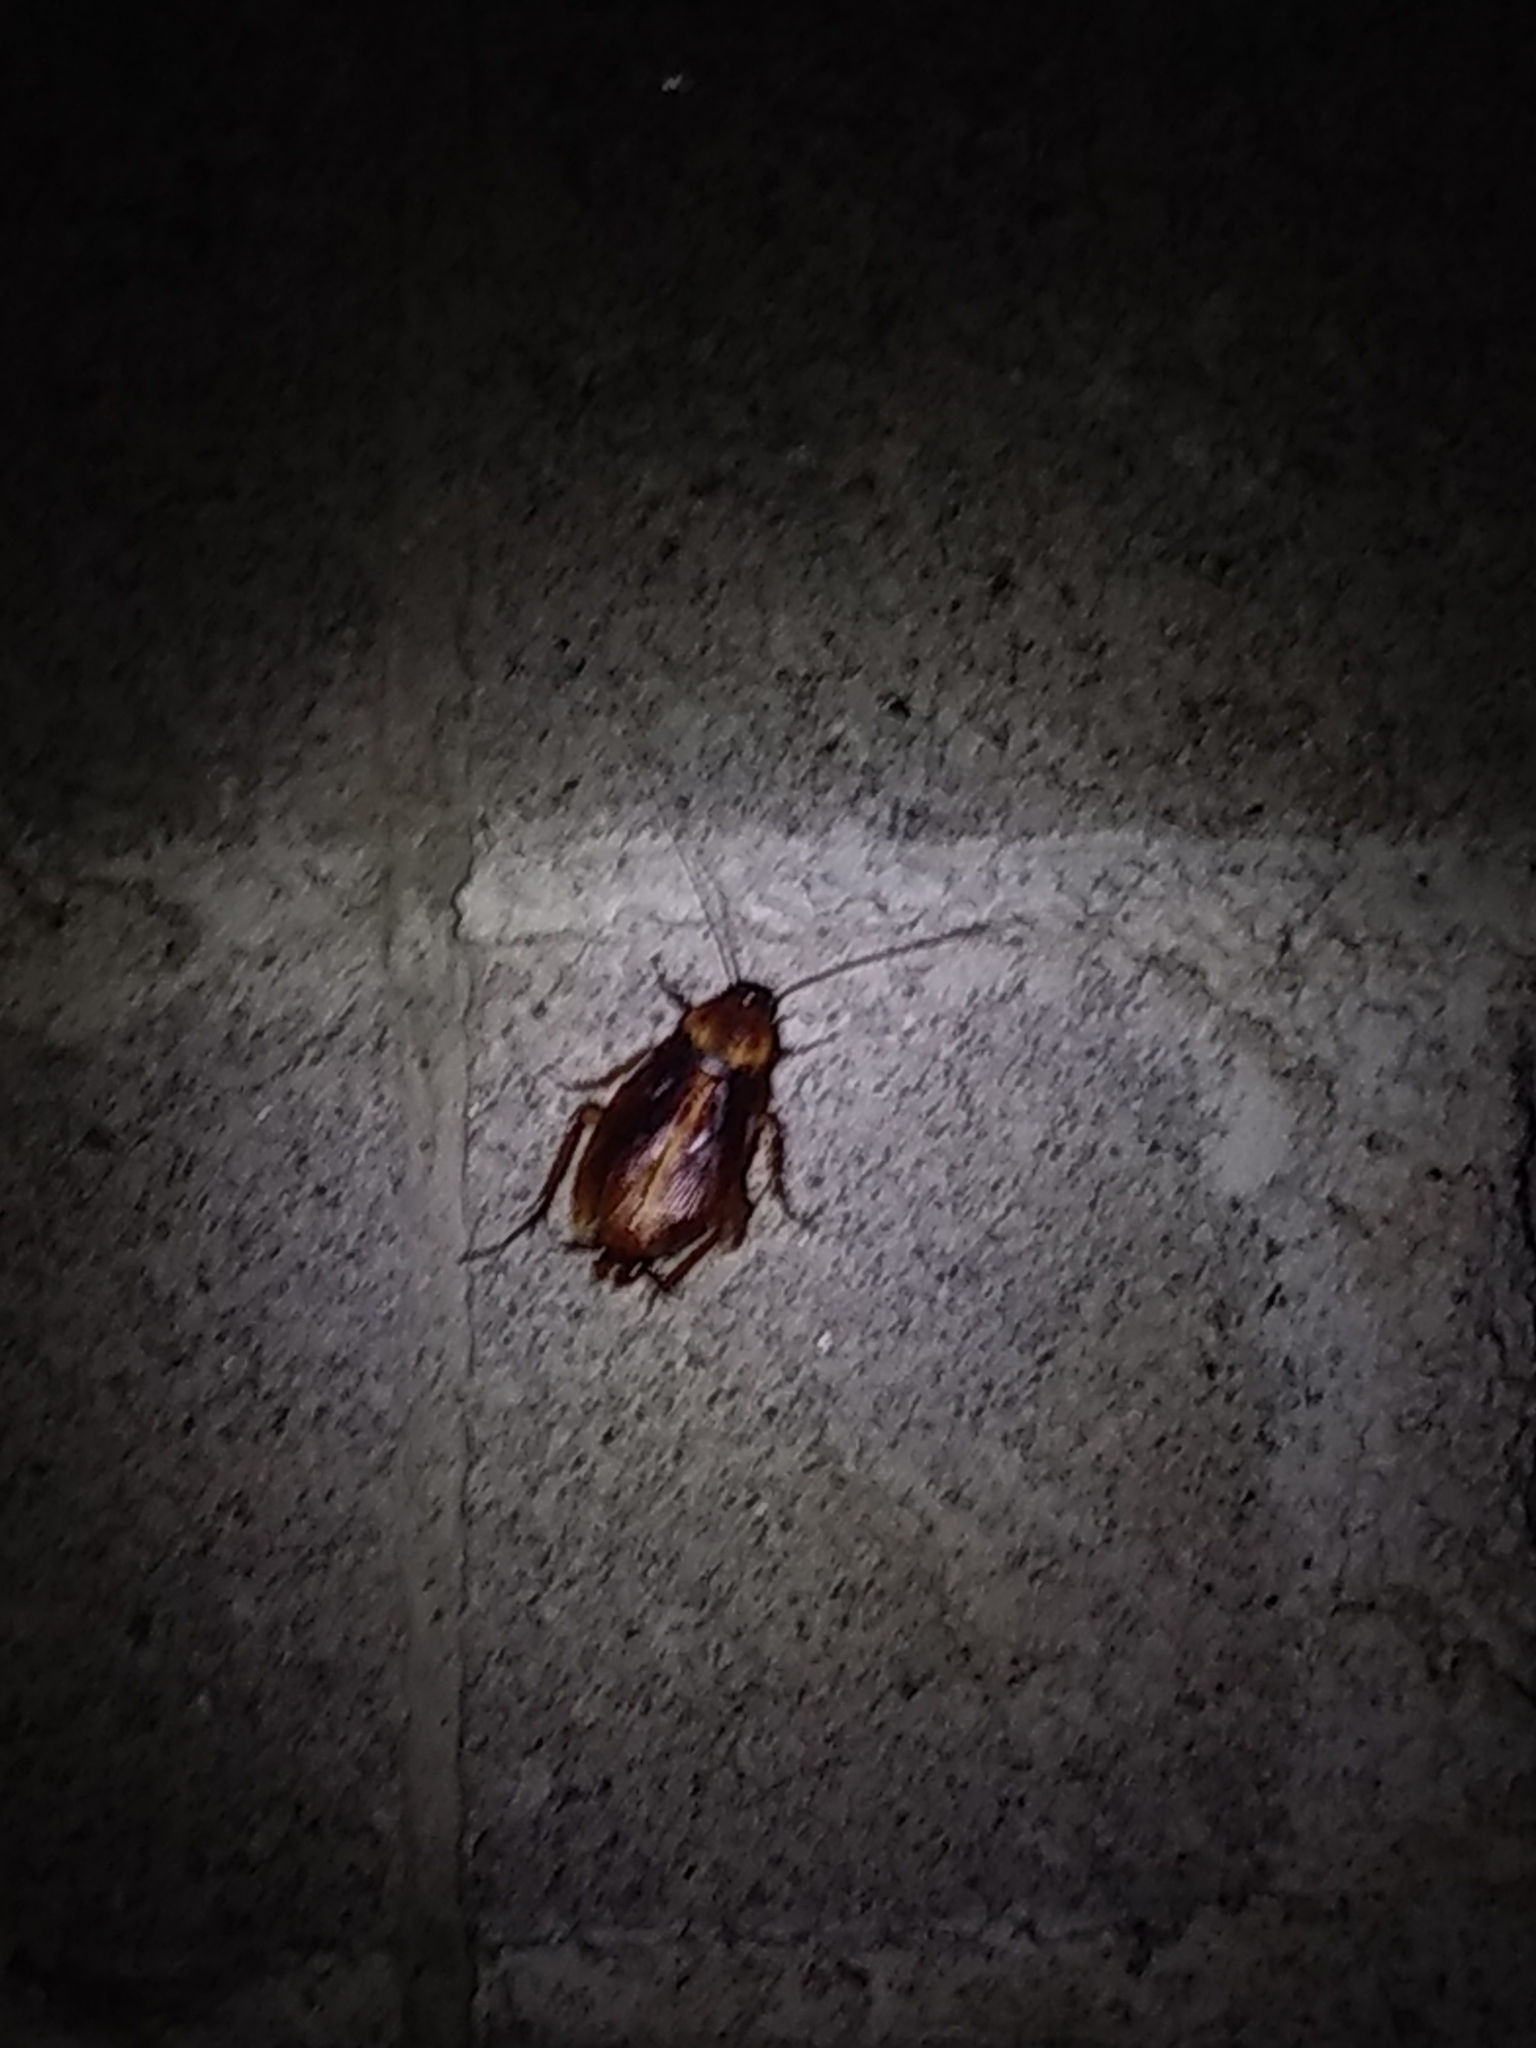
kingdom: Animalia
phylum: Arthropoda
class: Insecta
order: Blattodea
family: Blattidae
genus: Periplaneta
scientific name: Periplaneta americana
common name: American cockroach
